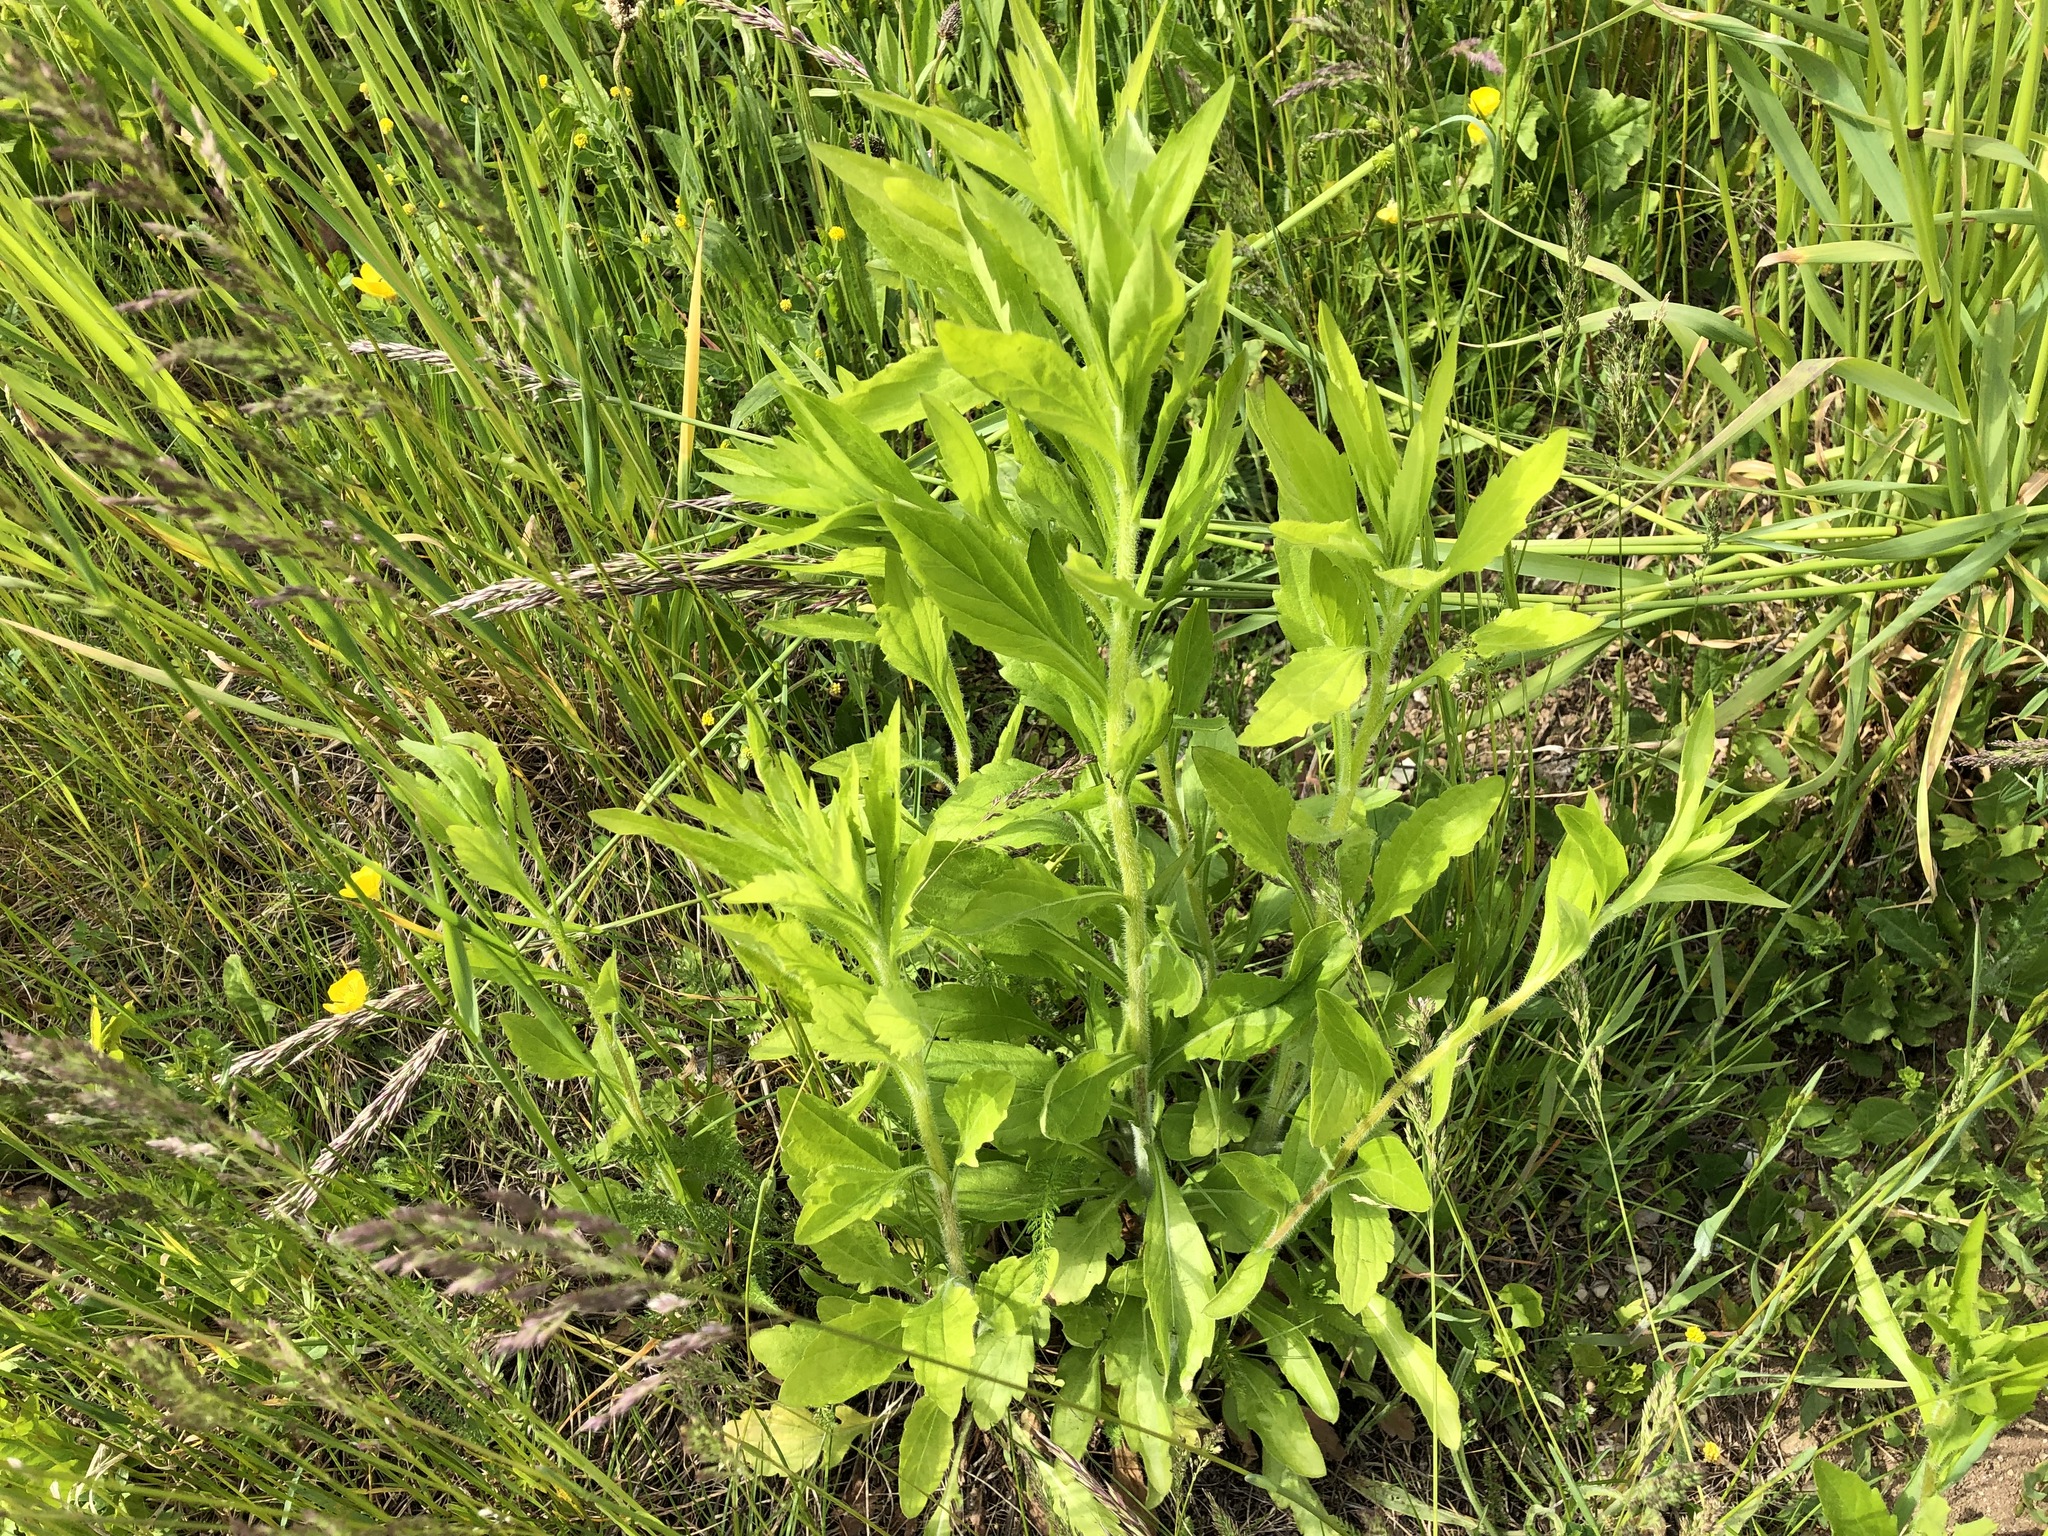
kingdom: Plantae
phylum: Tracheophyta
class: Magnoliopsida
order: Asterales
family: Asteraceae
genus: Erigeron
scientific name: Erigeron annuus
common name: Tall fleabane
